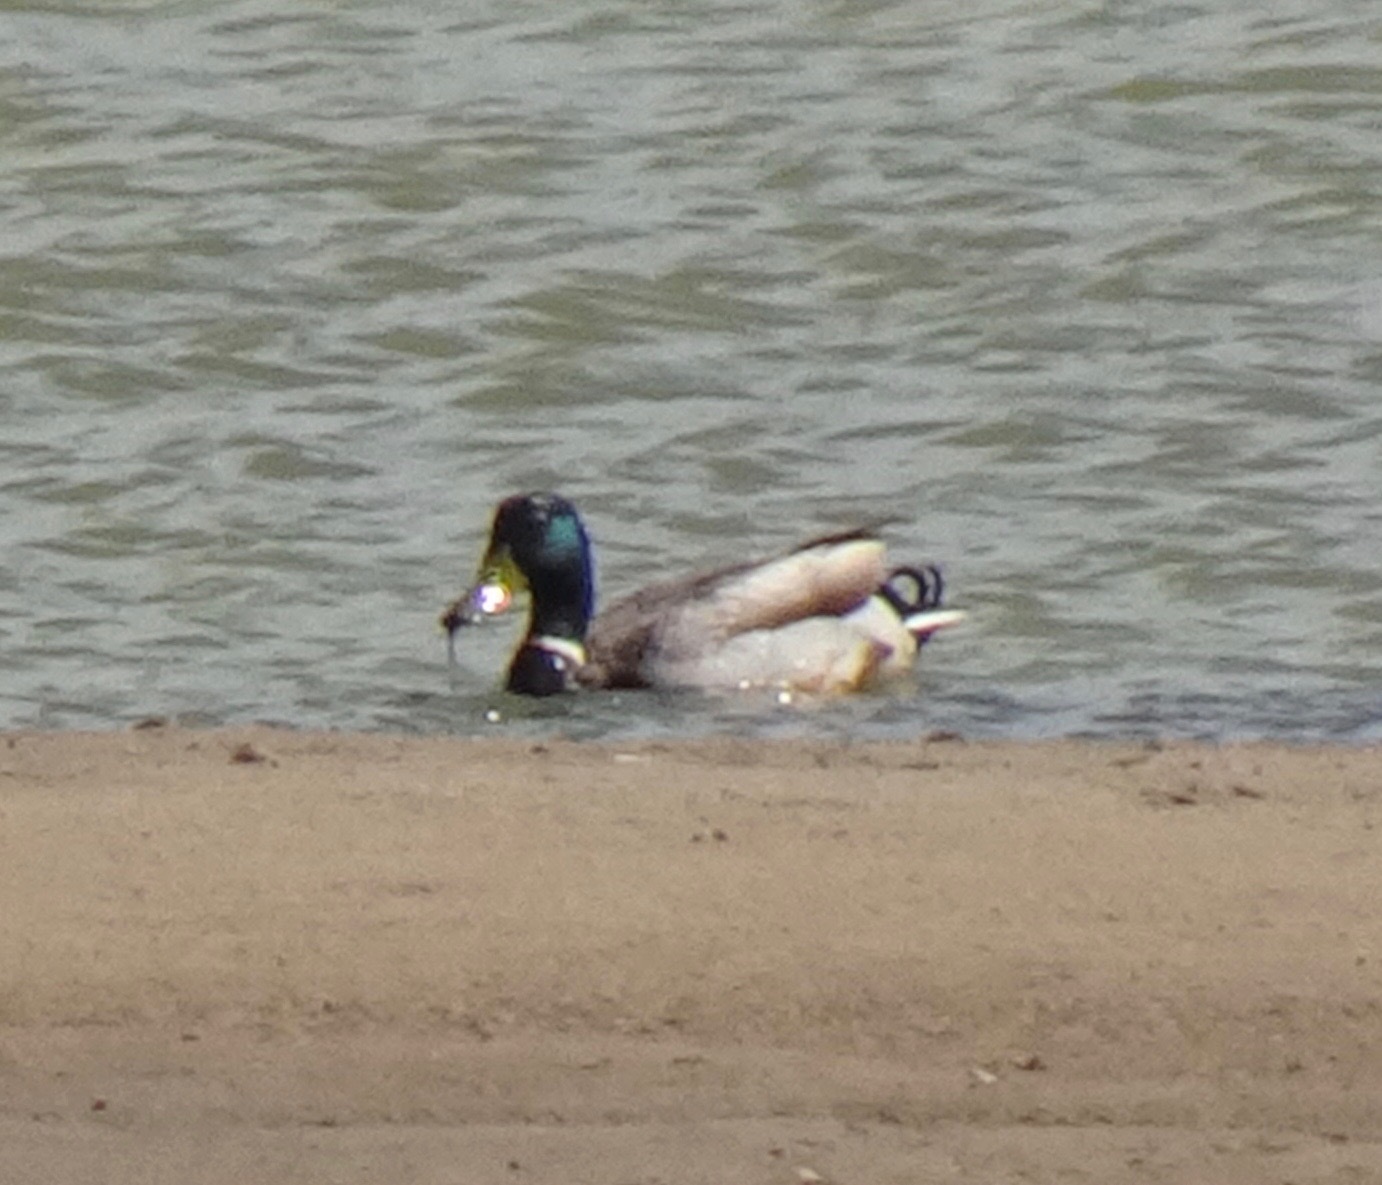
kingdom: Animalia
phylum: Chordata
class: Aves
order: Anseriformes
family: Anatidae
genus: Anas
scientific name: Anas platyrhynchos
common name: Mallard
